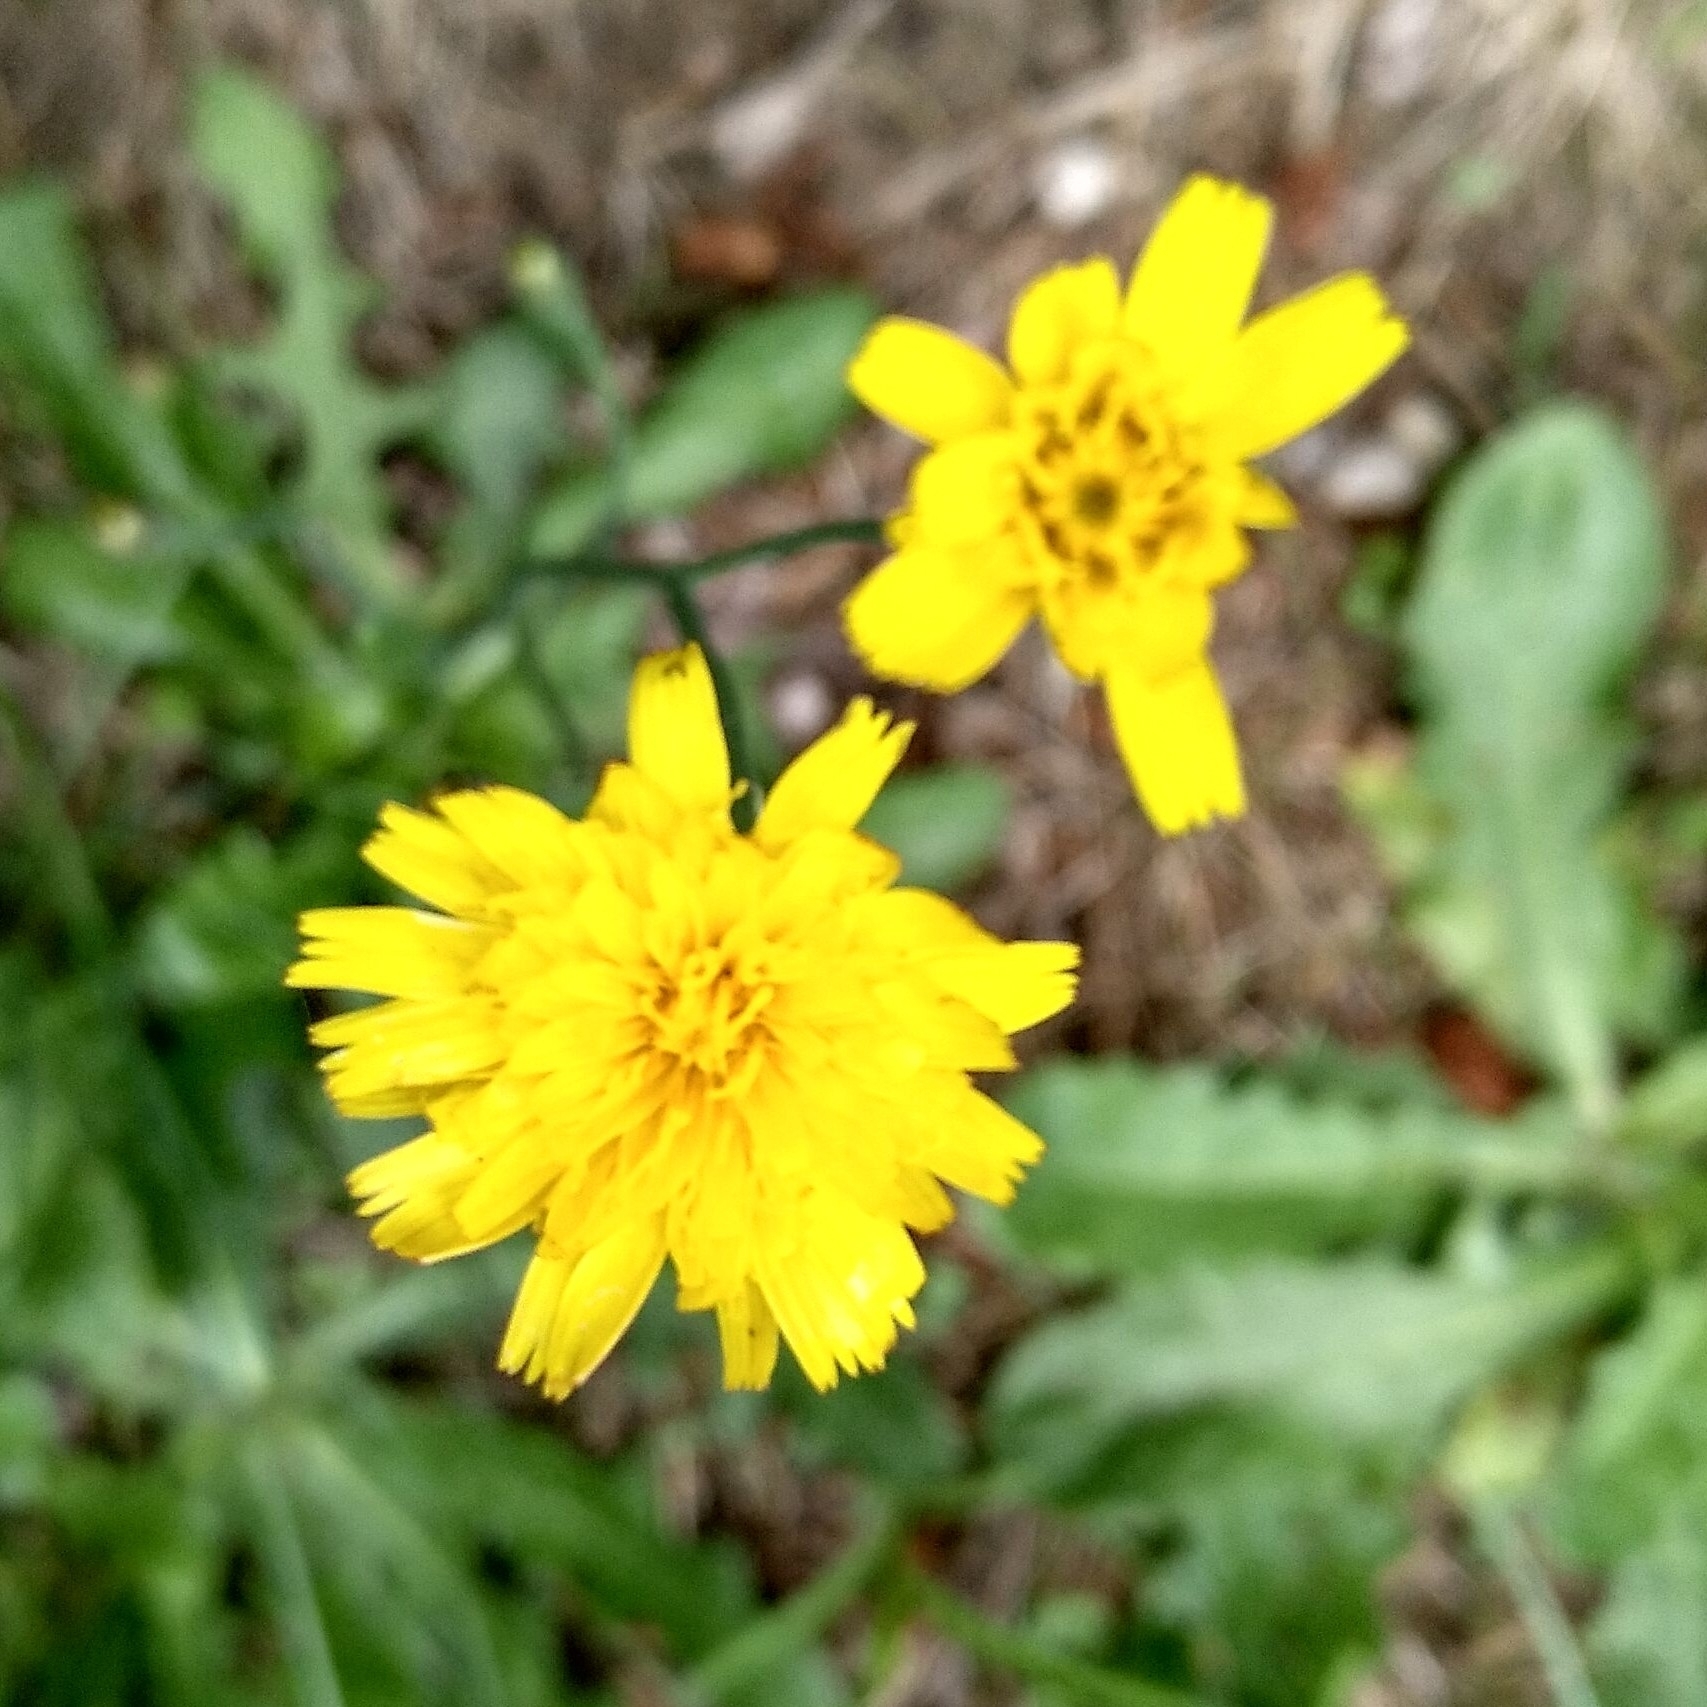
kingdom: Plantae
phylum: Tracheophyta
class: Magnoliopsida
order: Asterales
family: Asteraceae
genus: Hypochaeris
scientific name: Hypochaeris radicata
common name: Flatweed
